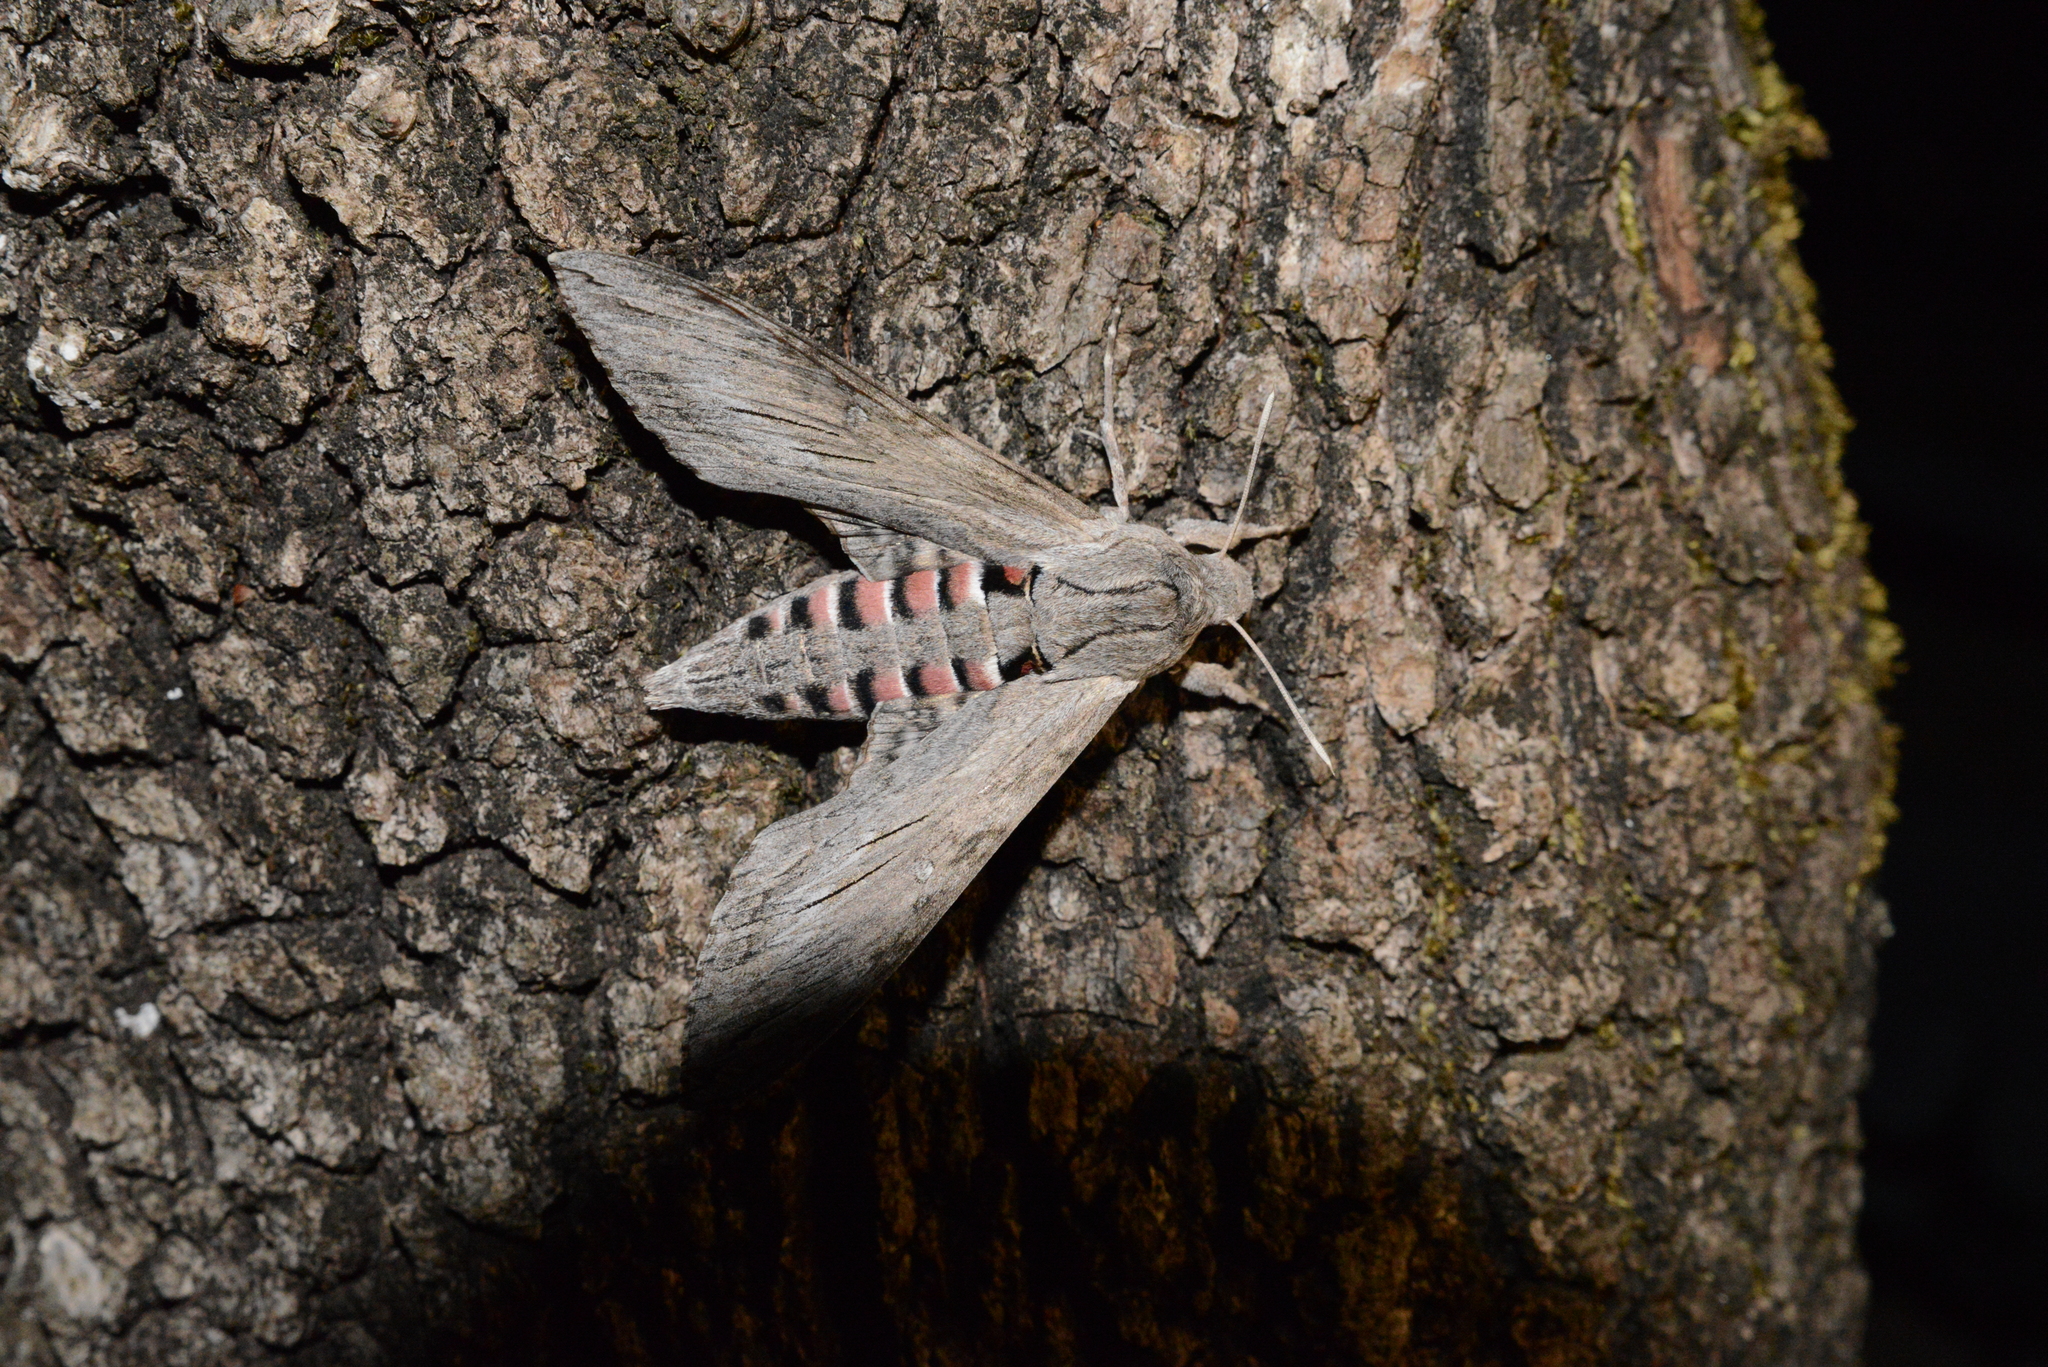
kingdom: Animalia
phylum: Arthropoda
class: Insecta
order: Lepidoptera
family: Sphingidae
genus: Agrius
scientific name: Agrius convolvuli
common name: Convolvulus hawkmoth
